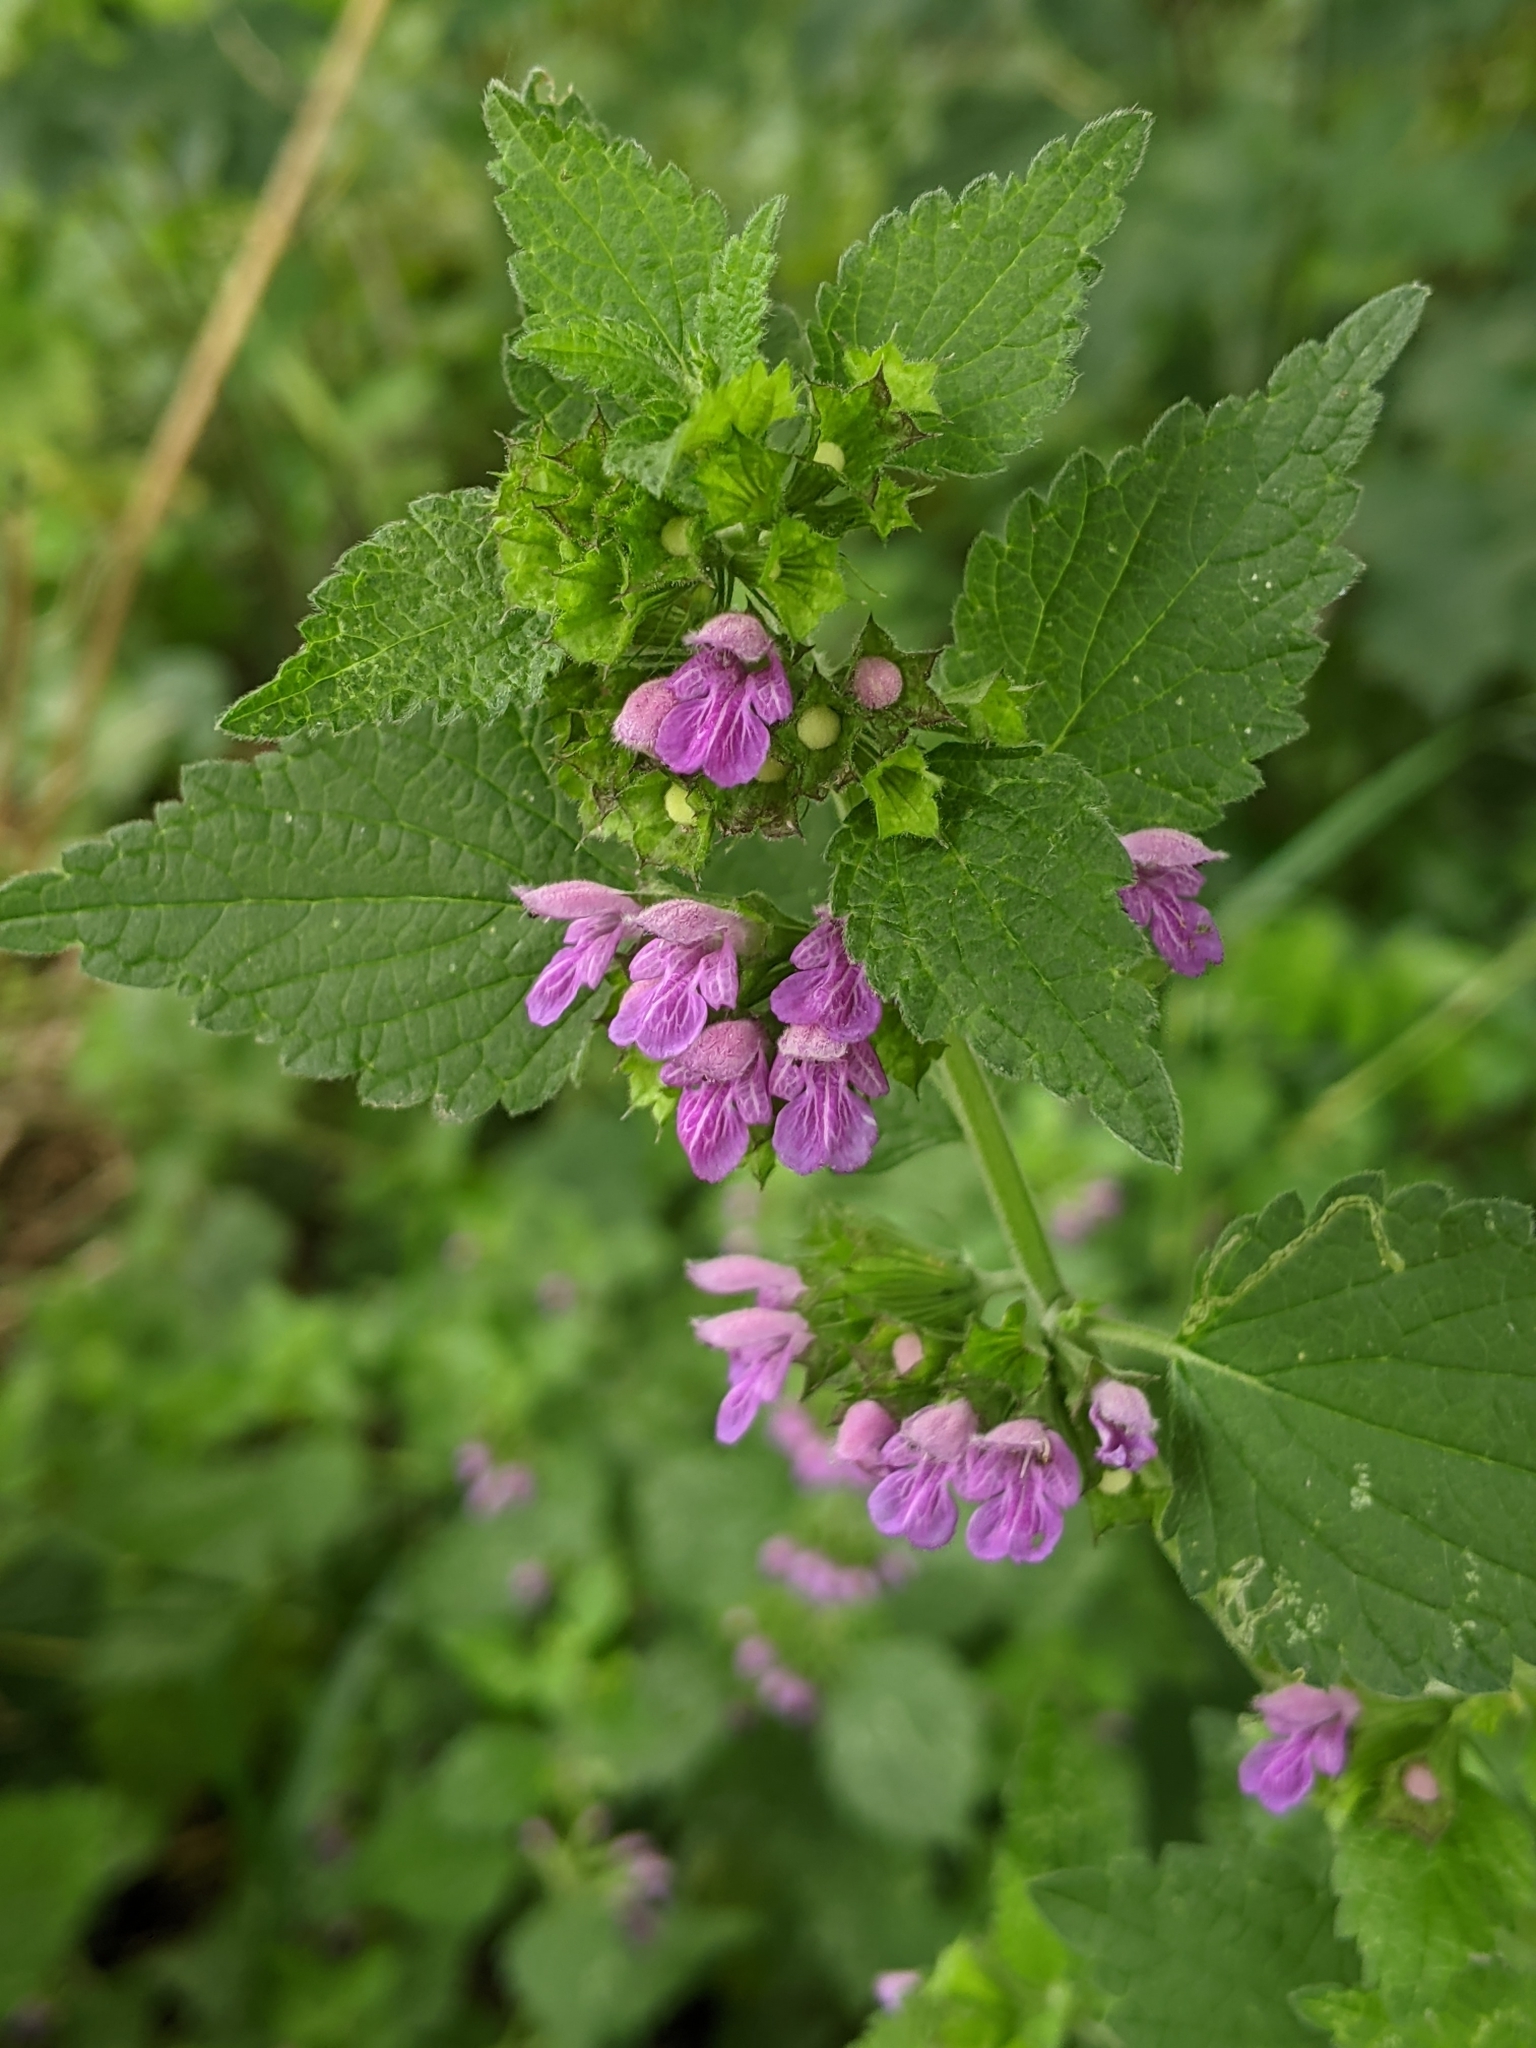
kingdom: Plantae
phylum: Tracheophyta
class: Magnoliopsida
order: Lamiales
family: Lamiaceae
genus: Ballota
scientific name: Ballota nigra
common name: Black horehound
